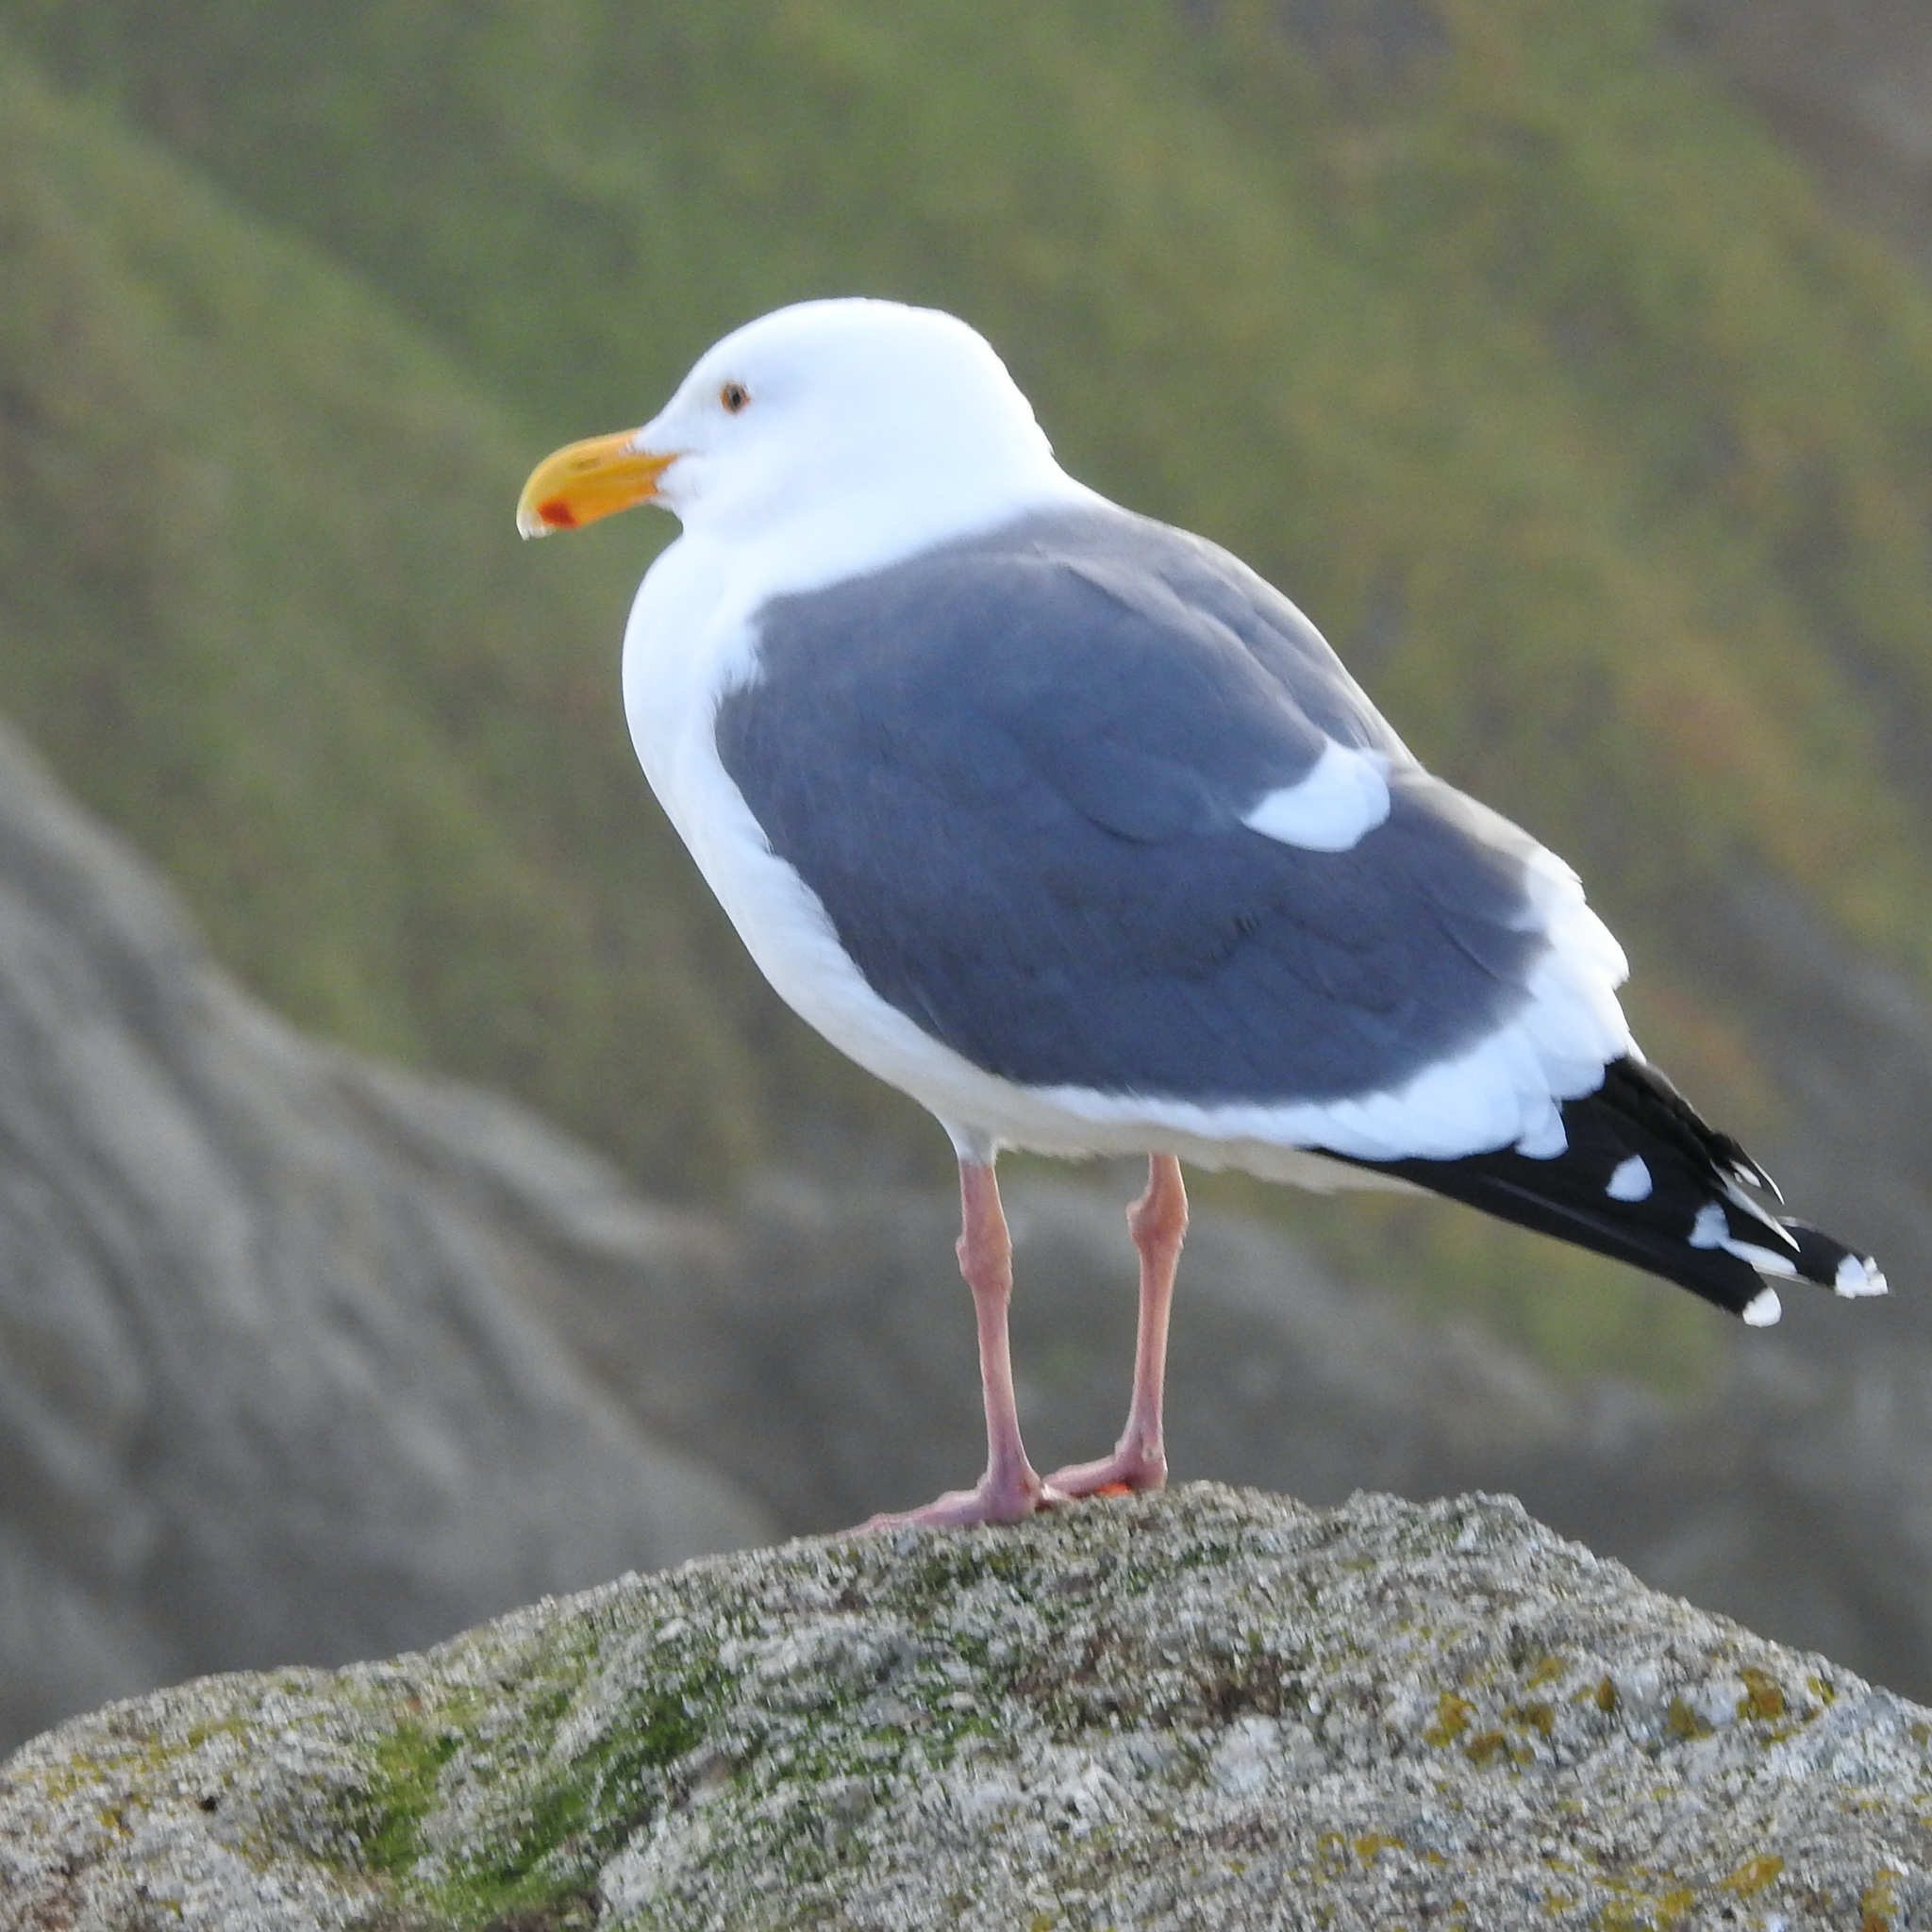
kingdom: Animalia
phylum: Chordata
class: Aves
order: Charadriiformes
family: Laridae
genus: Larus
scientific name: Larus occidentalis
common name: Western gull
